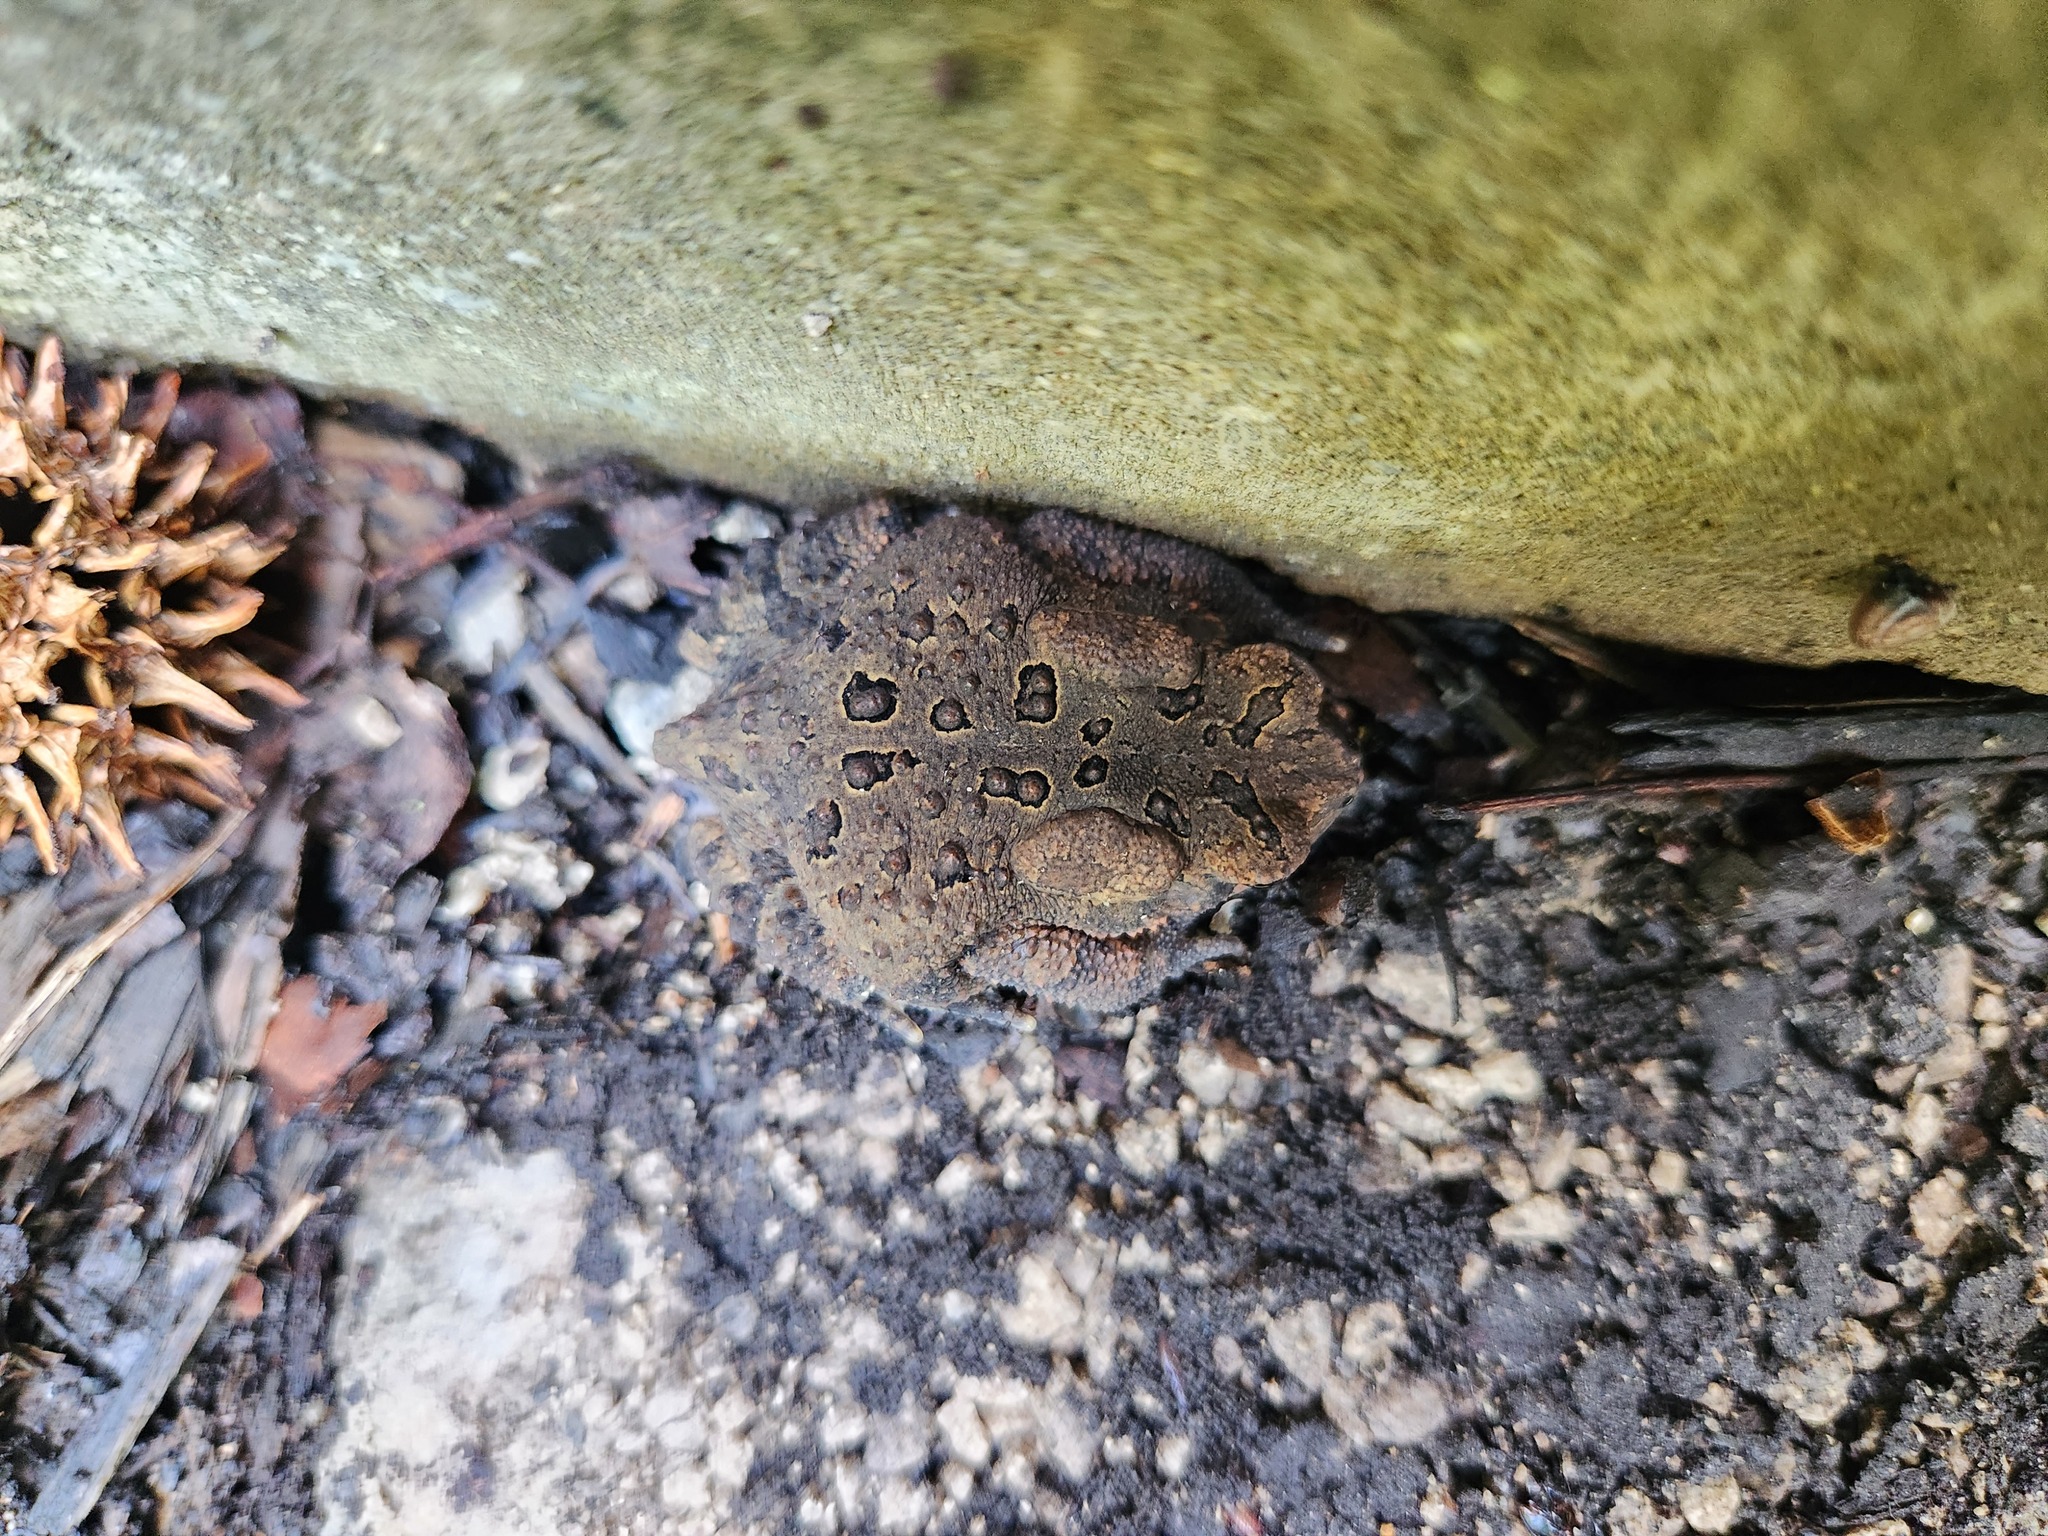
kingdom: Animalia
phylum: Chordata
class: Amphibia
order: Anura
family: Bufonidae
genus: Anaxyrus
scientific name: Anaxyrus americanus
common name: American toad
